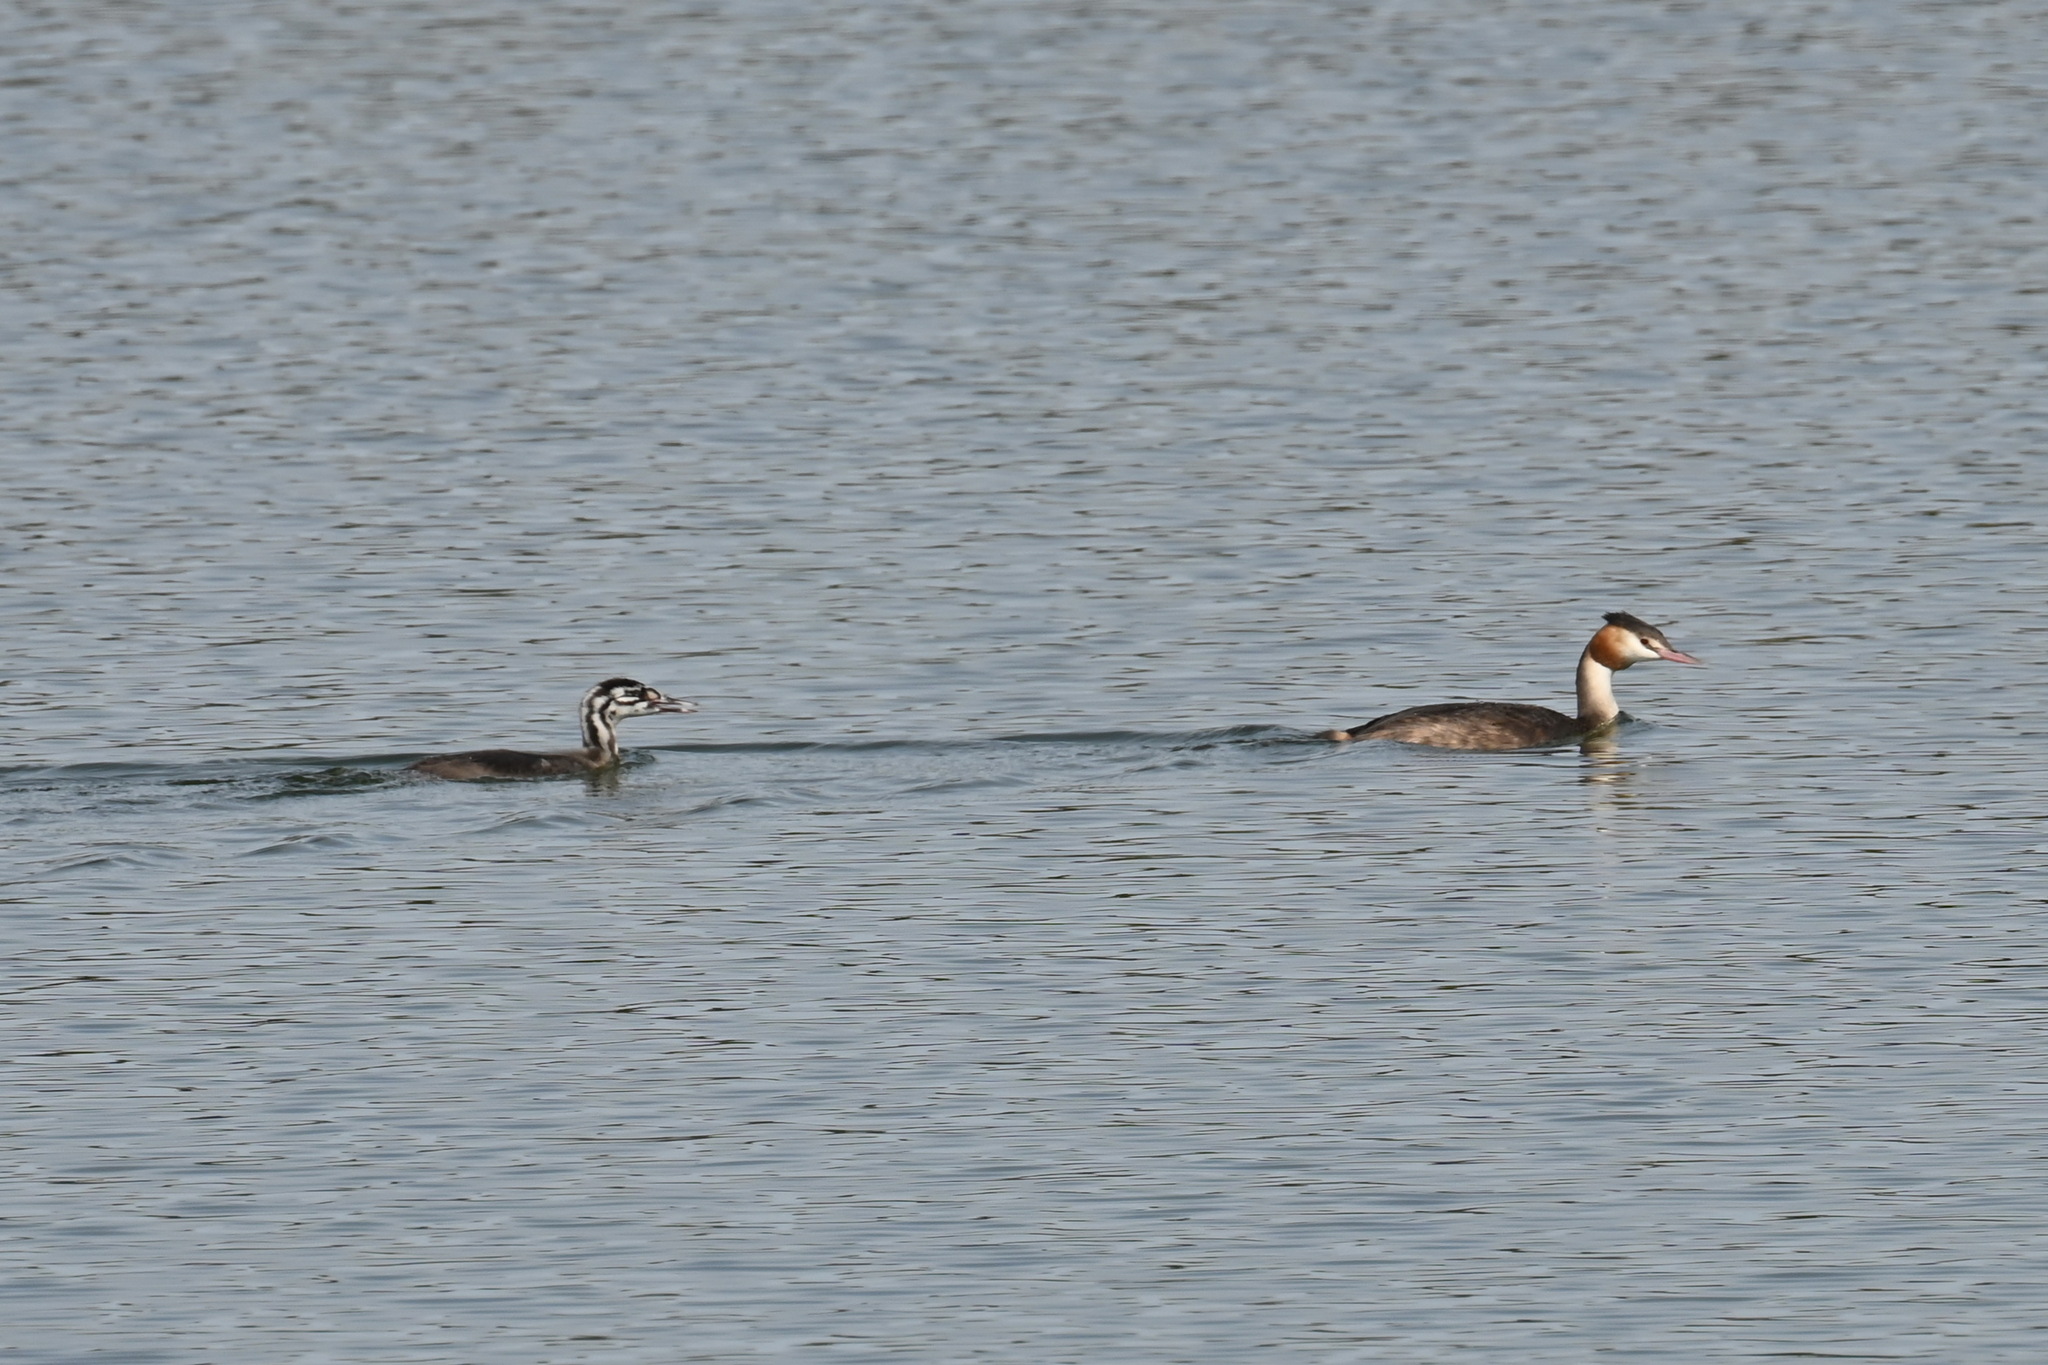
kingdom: Animalia
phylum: Chordata
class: Aves
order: Podicipediformes
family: Podicipedidae
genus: Podiceps
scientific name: Podiceps cristatus
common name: Great crested grebe
